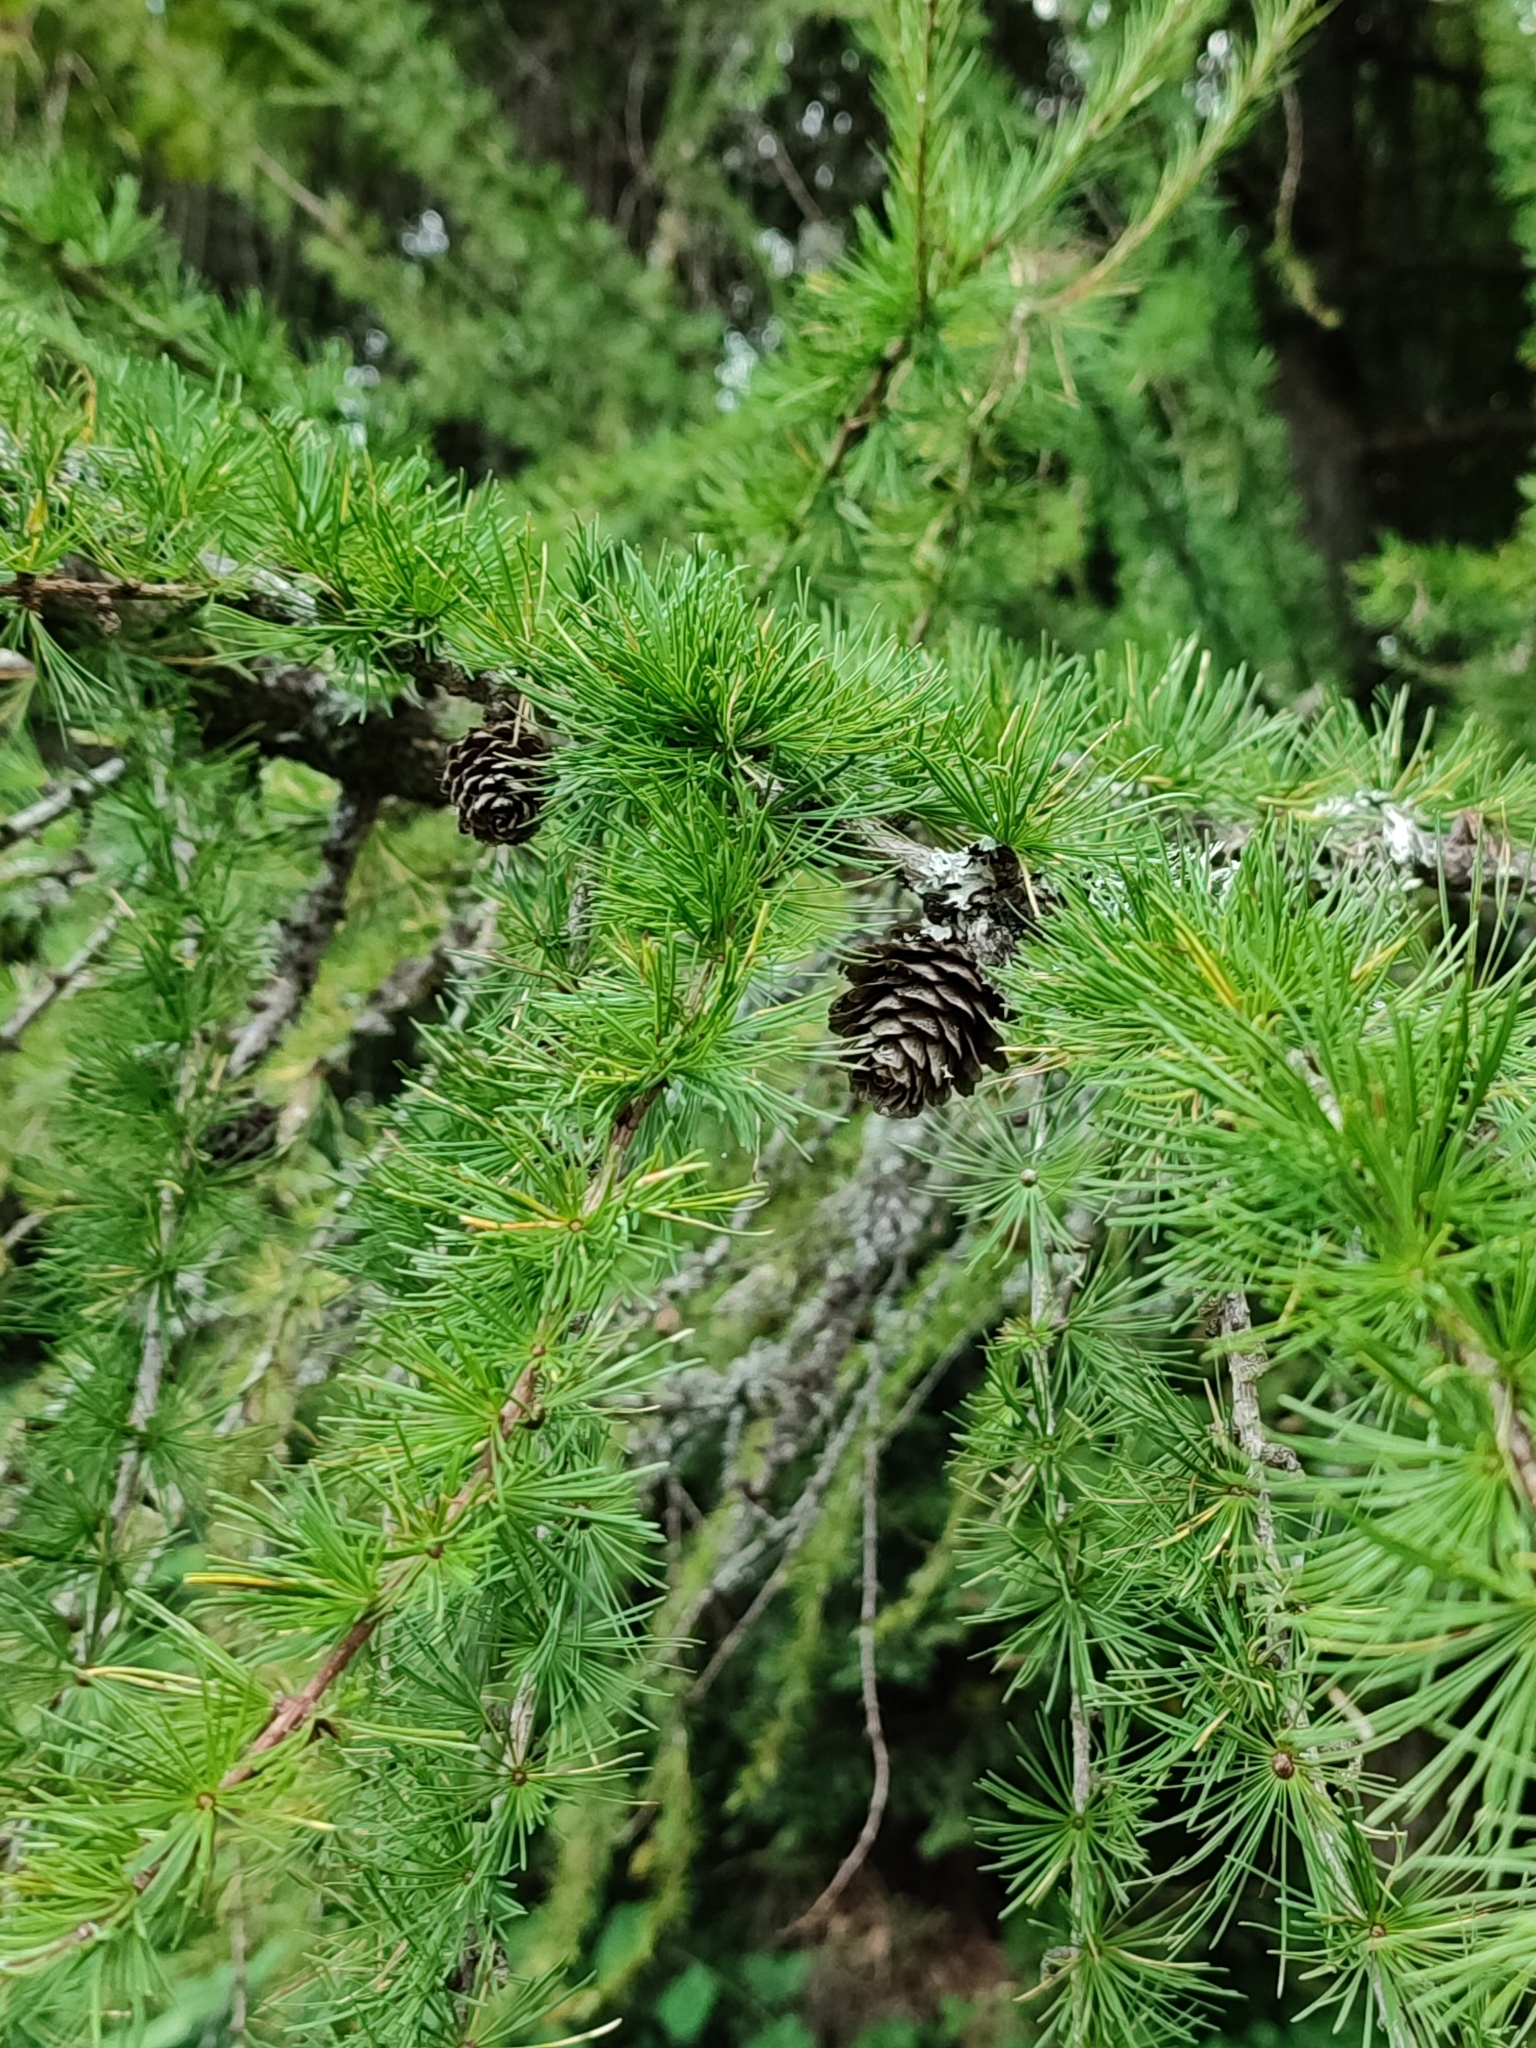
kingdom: Plantae
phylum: Tracheophyta
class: Pinopsida
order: Pinales
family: Pinaceae
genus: Larix
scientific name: Larix decidua
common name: European larch
